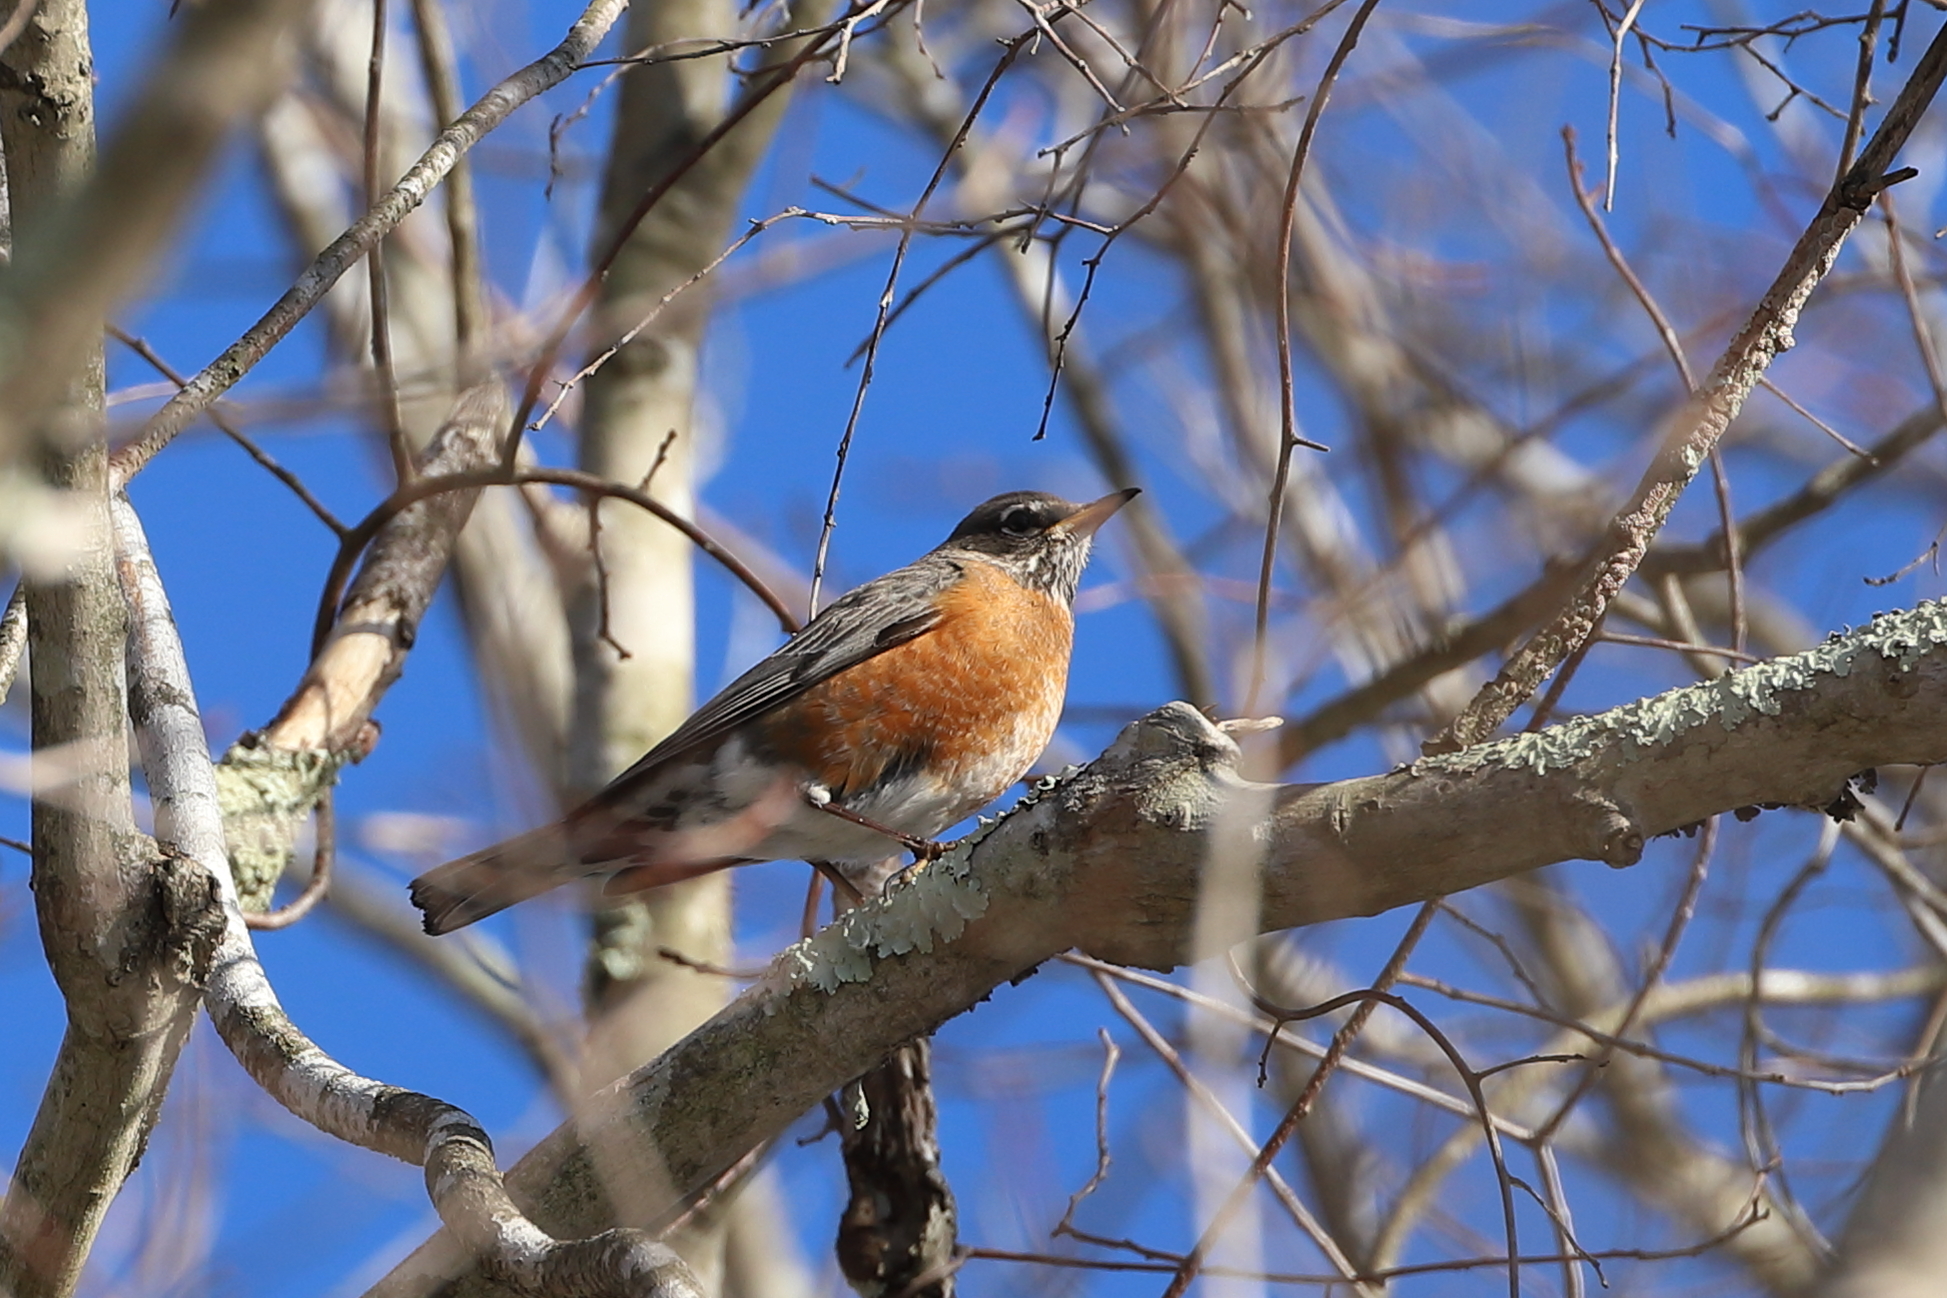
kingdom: Animalia
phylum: Chordata
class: Aves
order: Passeriformes
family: Turdidae
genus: Turdus
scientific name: Turdus migratorius
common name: American robin
